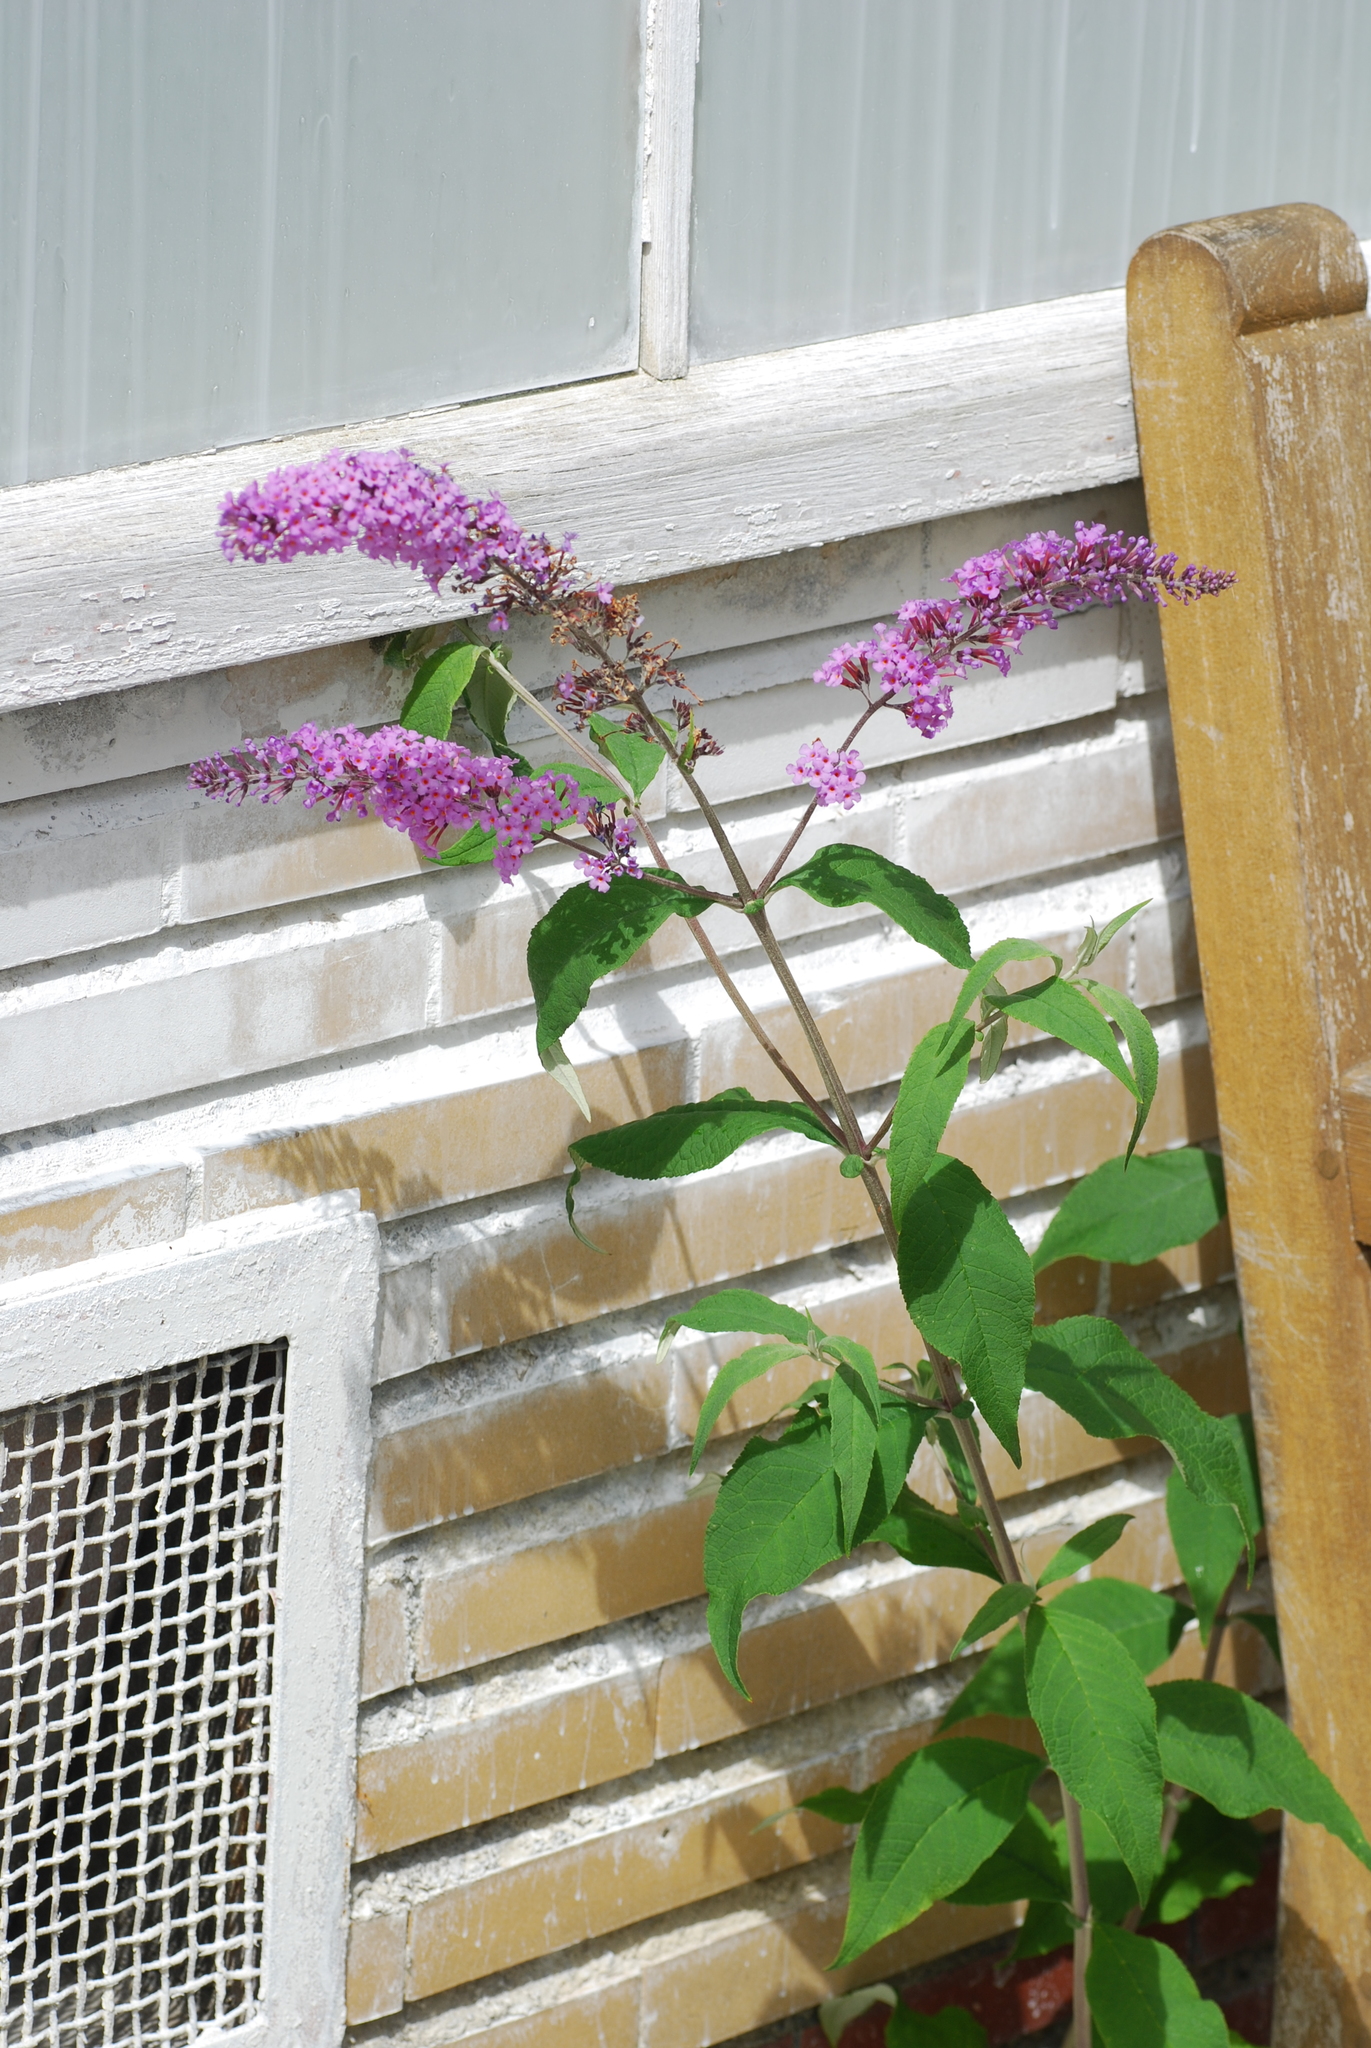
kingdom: Plantae
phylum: Tracheophyta
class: Magnoliopsida
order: Lamiales
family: Scrophulariaceae
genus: Buddleja
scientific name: Buddleja davidii
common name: Butterfly-bush
